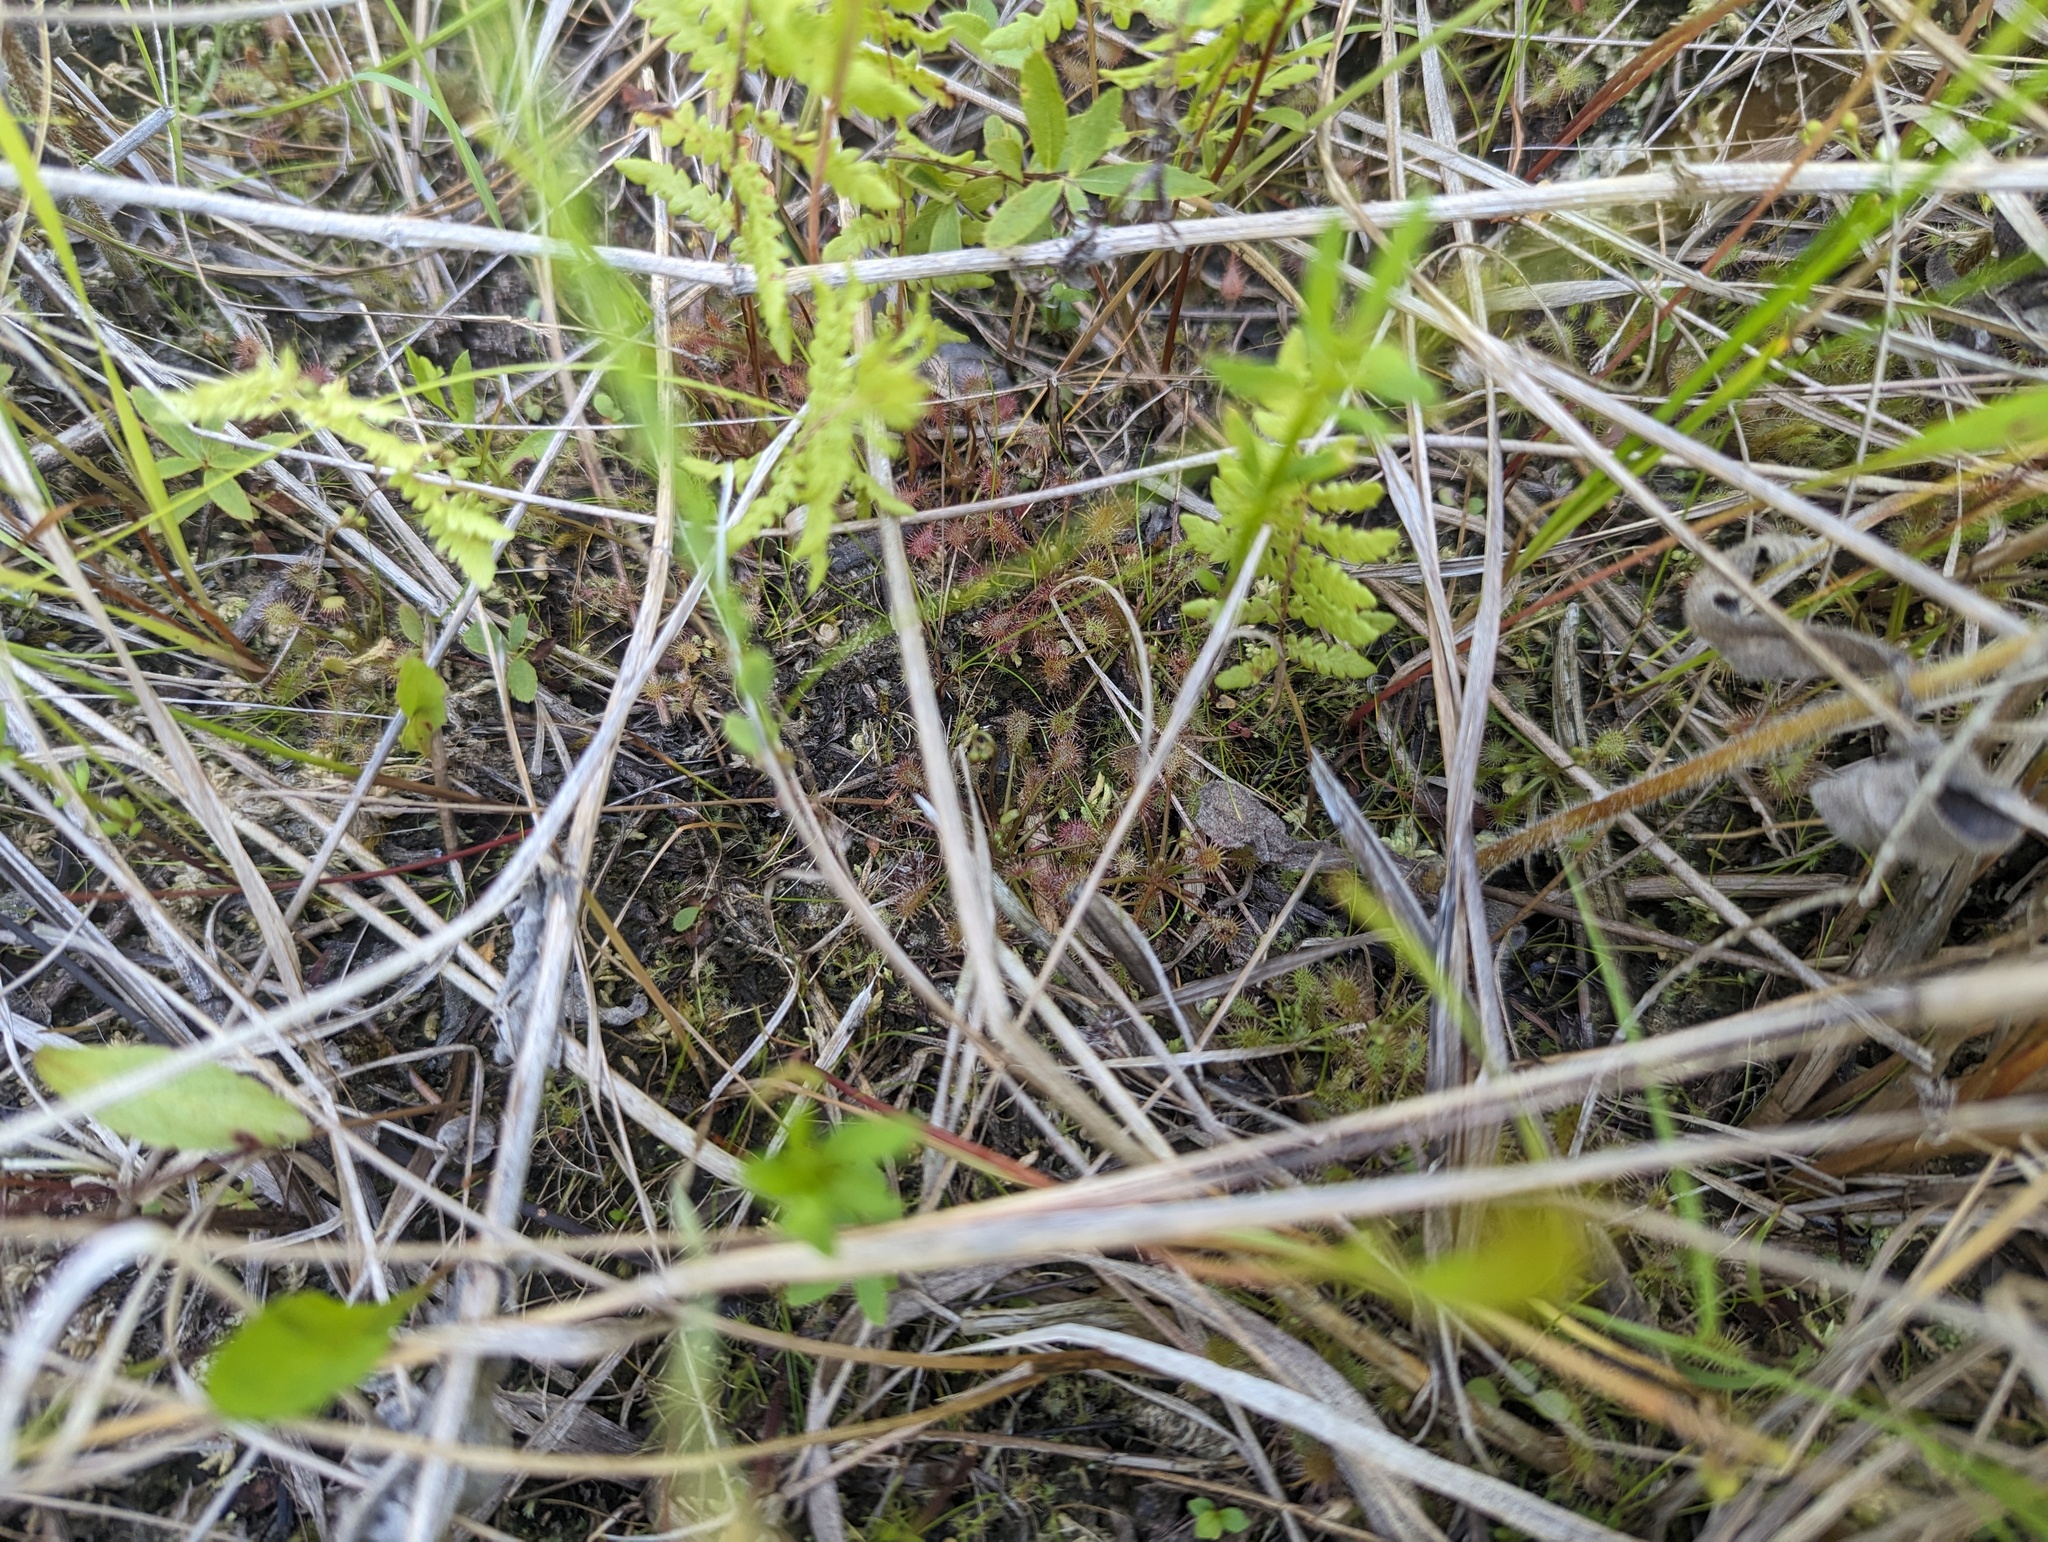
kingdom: Plantae
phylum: Tracheophyta
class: Magnoliopsida
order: Caryophyllales
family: Droseraceae
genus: Drosera
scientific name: Drosera intermedia
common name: Oblong-leaved sundew
